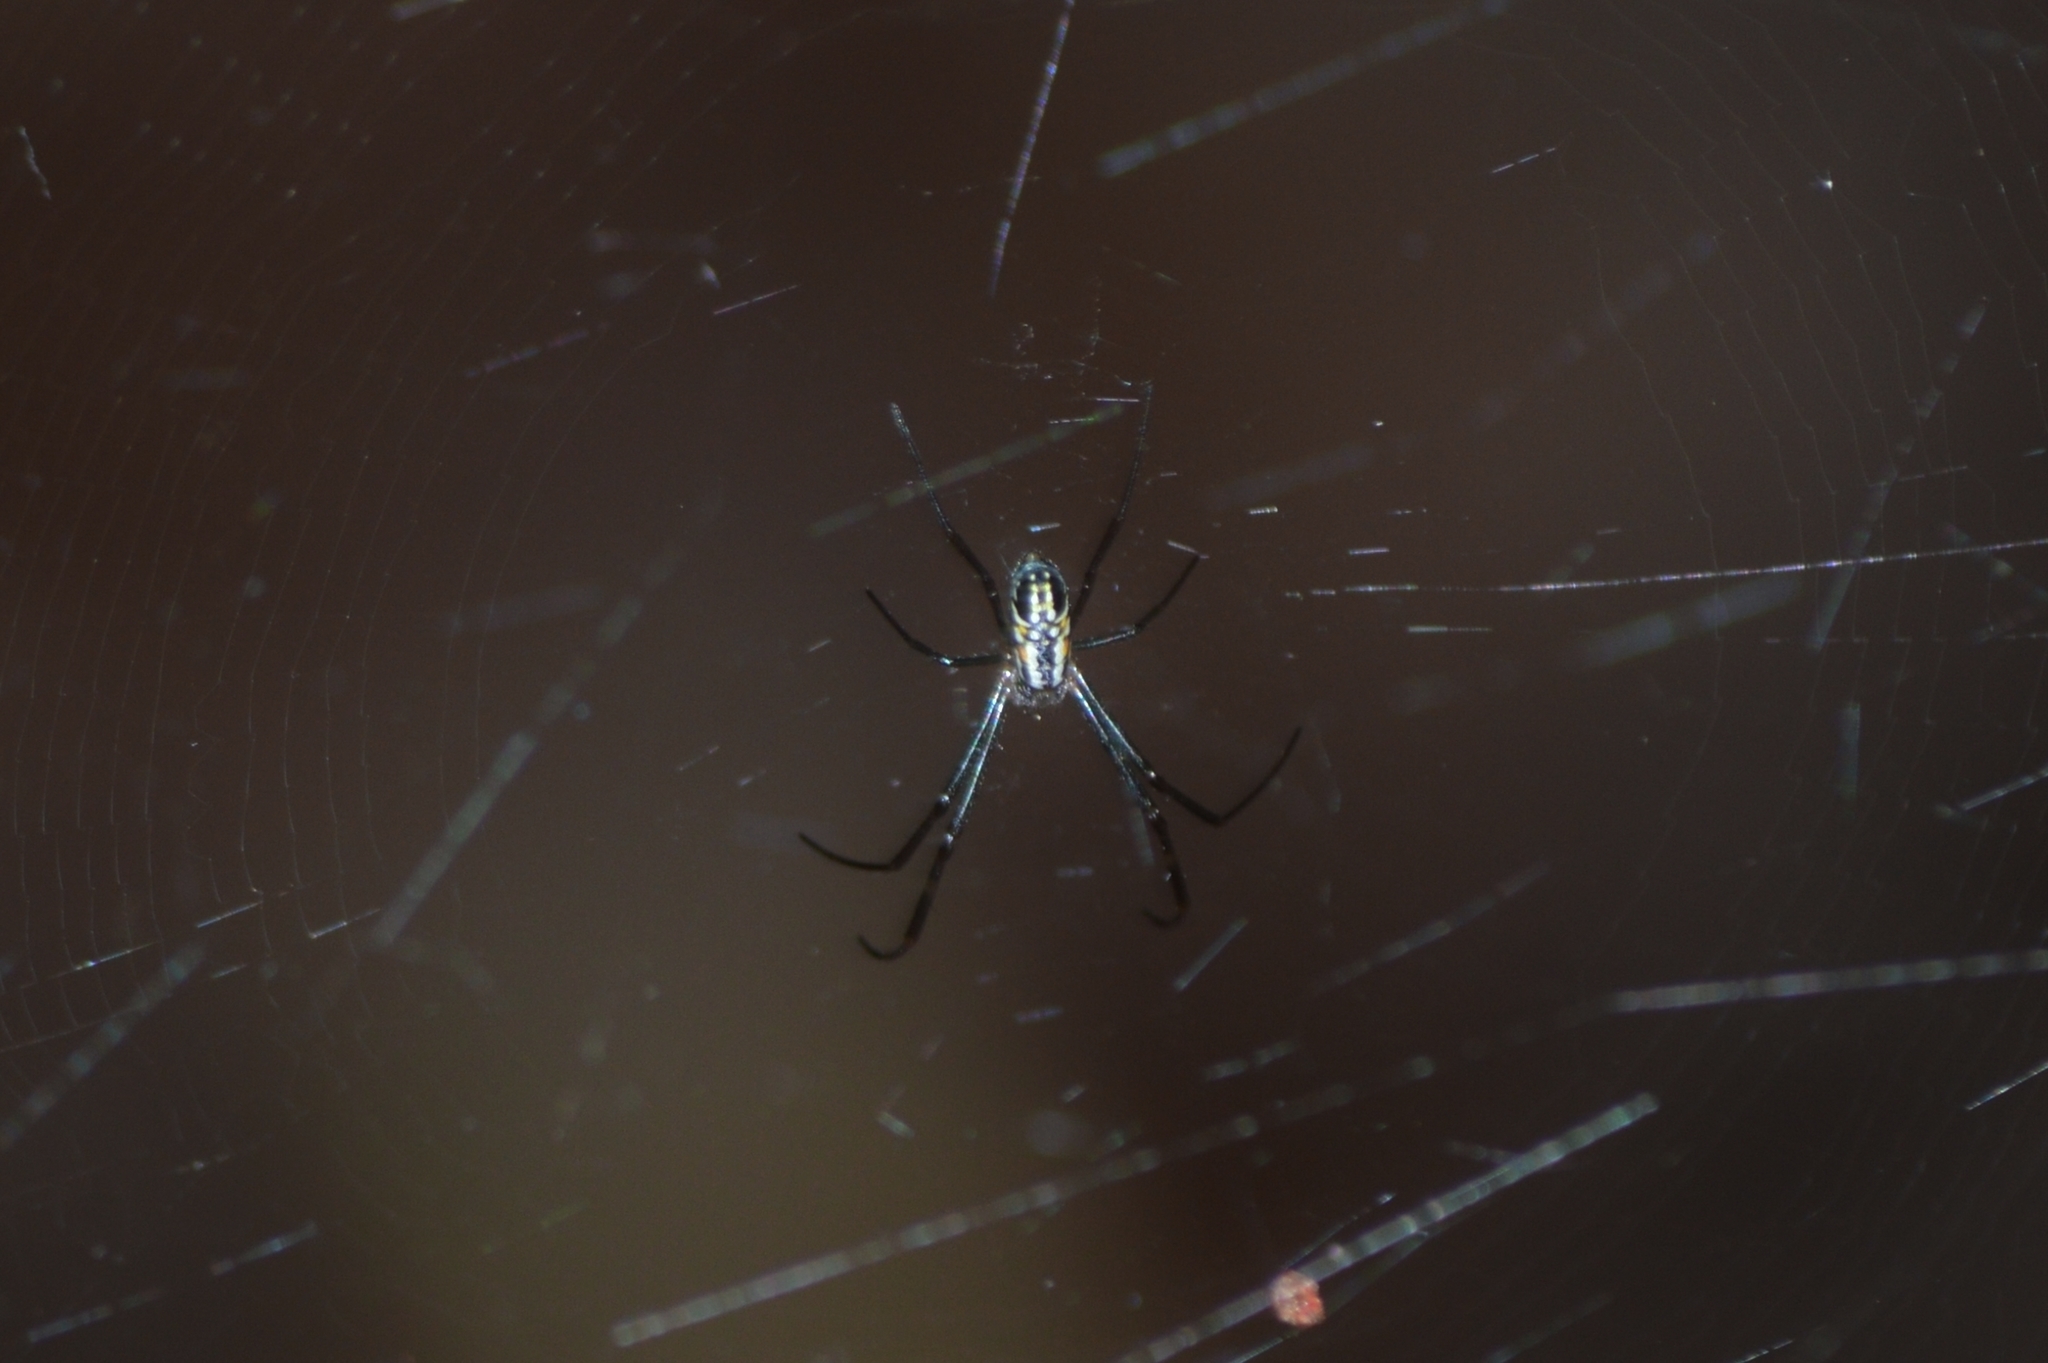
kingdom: Animalia
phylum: Arthropoda
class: Arachnida
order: Araneae
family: Araneidae
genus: Trichonephila
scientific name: Trichonephila clavipes
